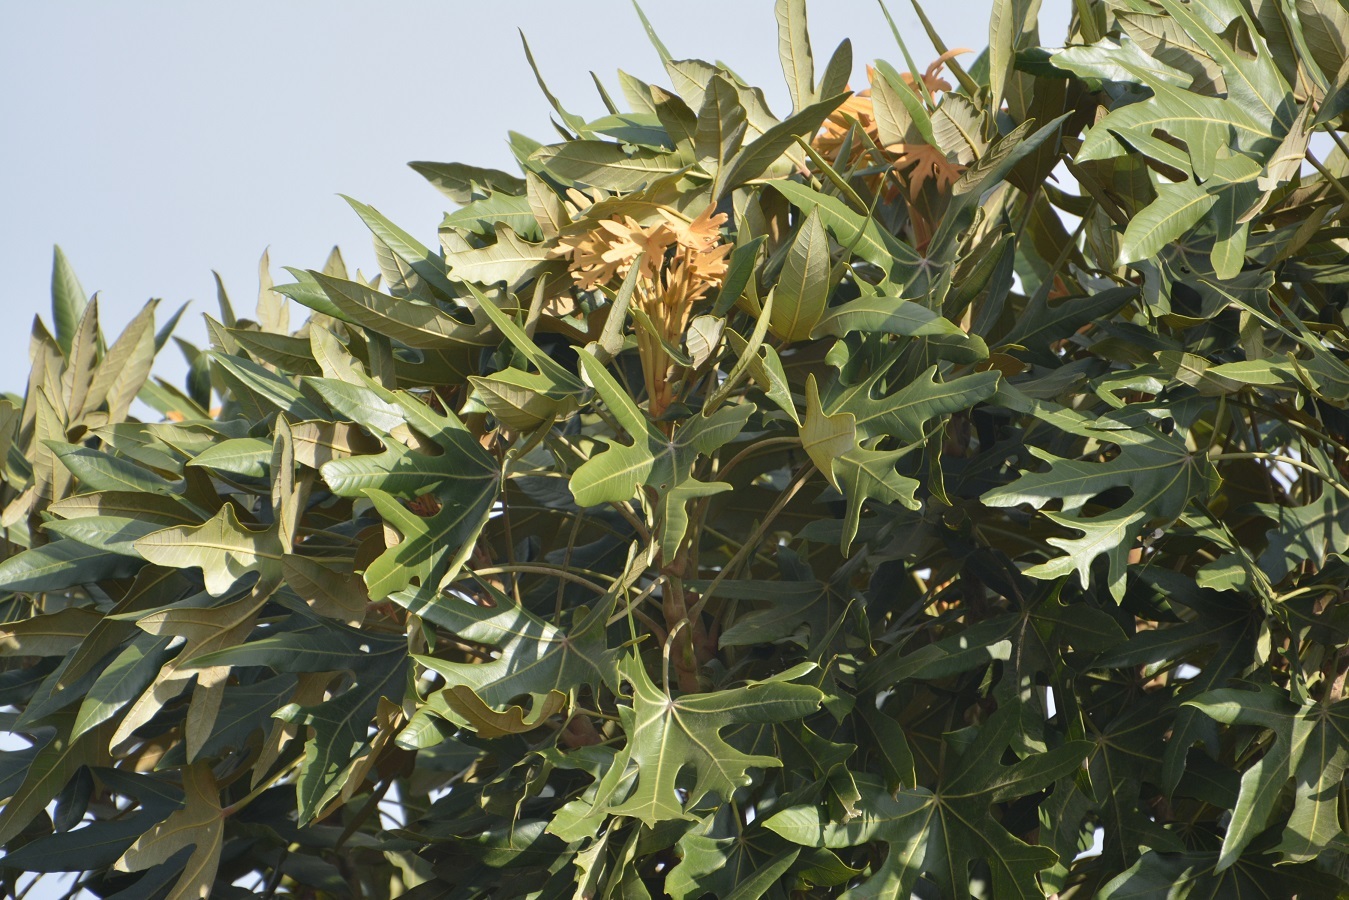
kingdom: Plantae
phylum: Tracheophyta
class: Magnoliopsida
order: Apiales
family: Araliaceae
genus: Oreopanax
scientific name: Oreopanax geminatus
